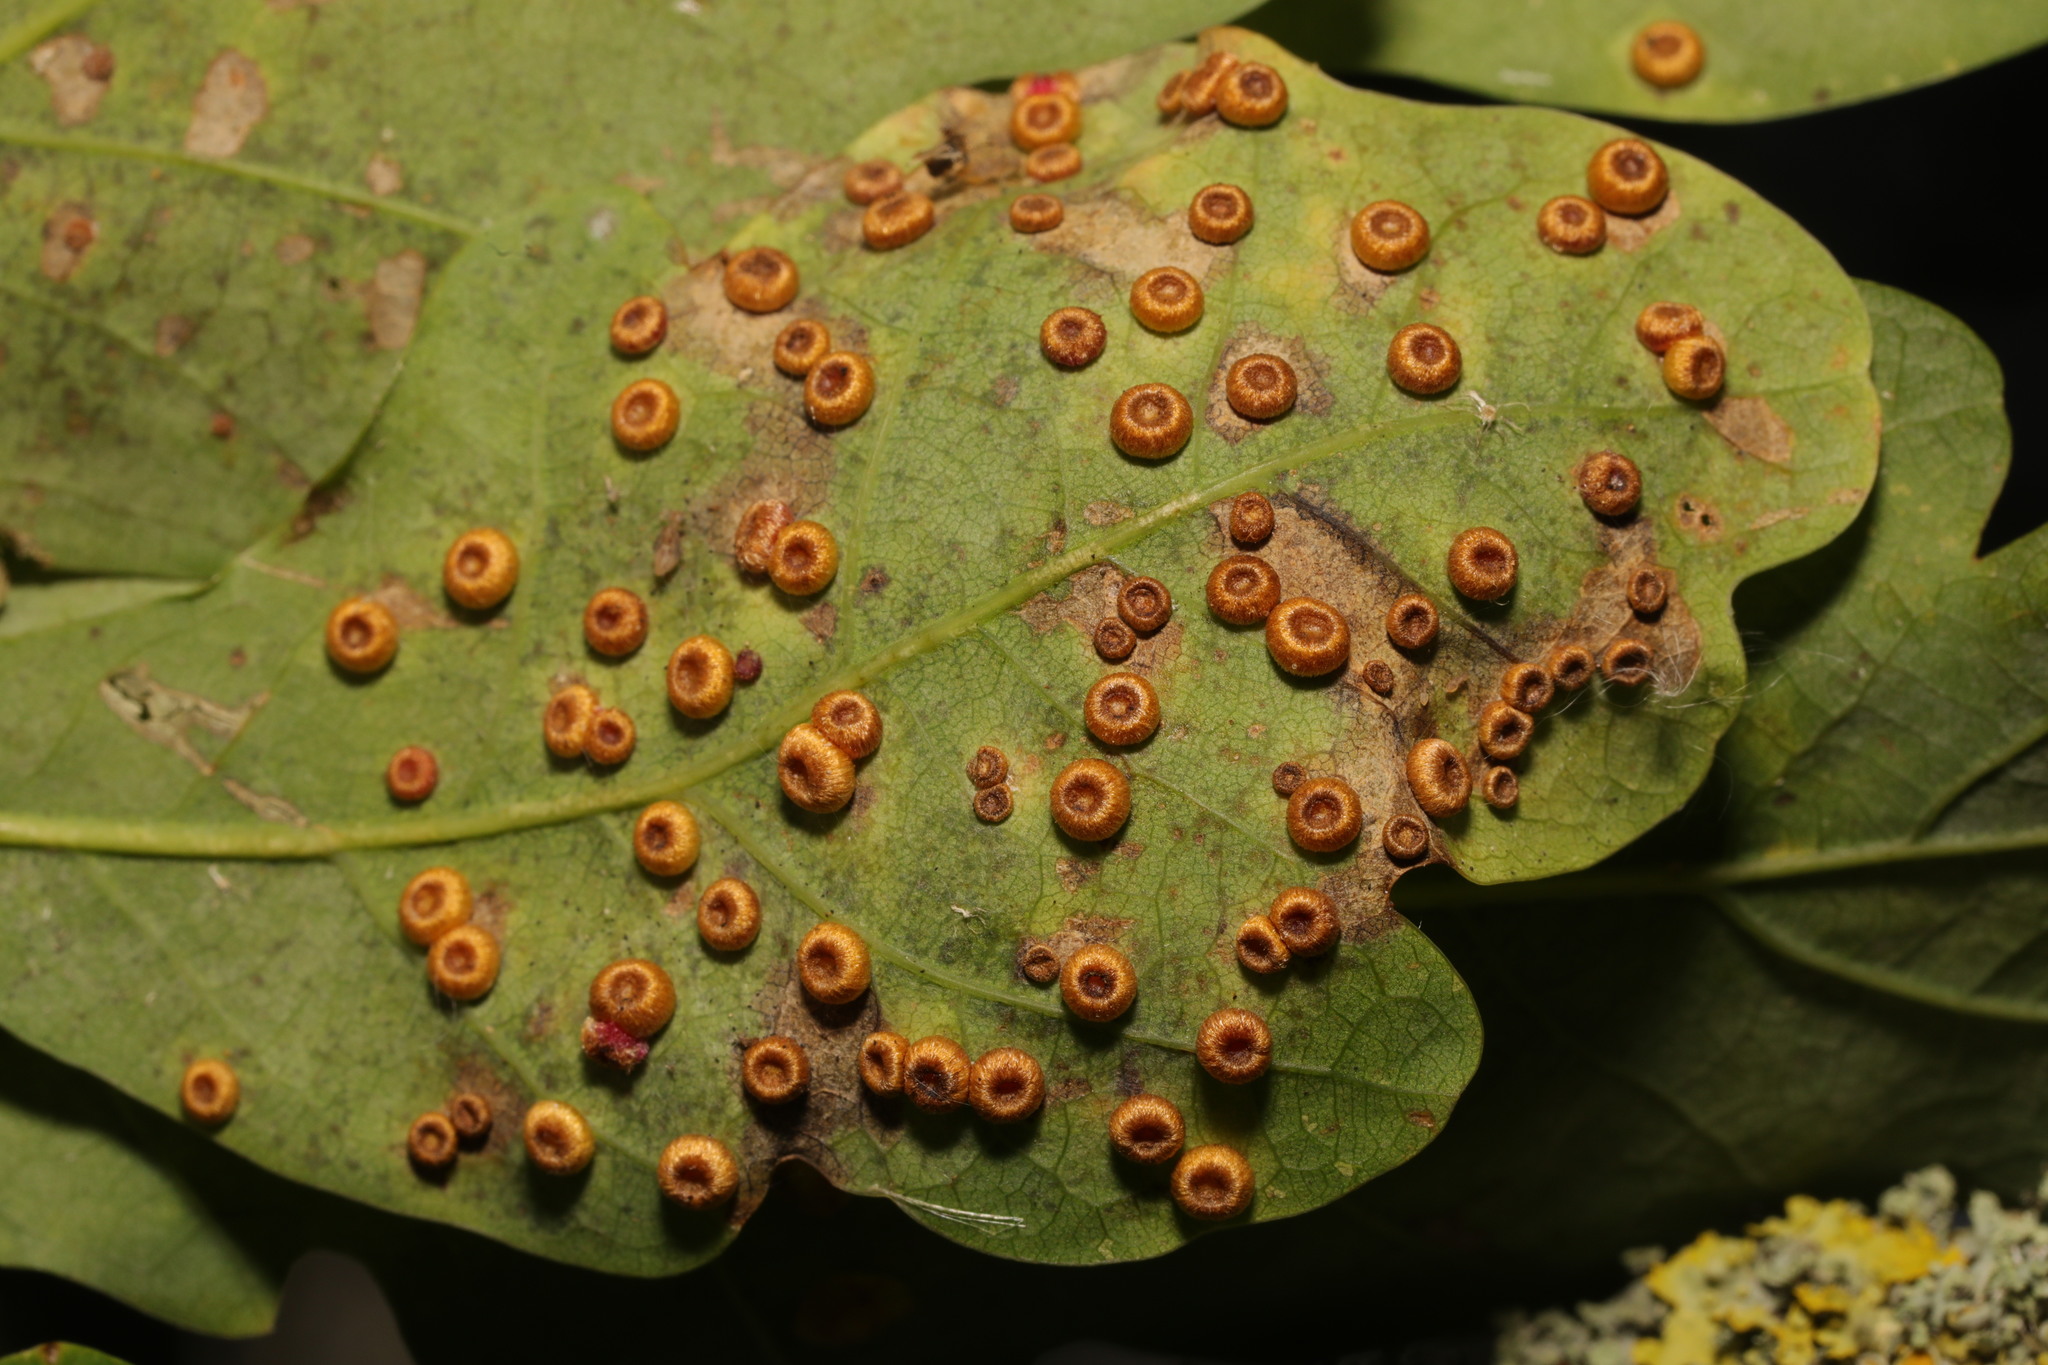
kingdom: Animalia
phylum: Arthropoda
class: Insecta
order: Hymenoptera
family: Cynipidae
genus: Neuroterus
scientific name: Neuroterus numismalis
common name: Silk-button spangle gall
